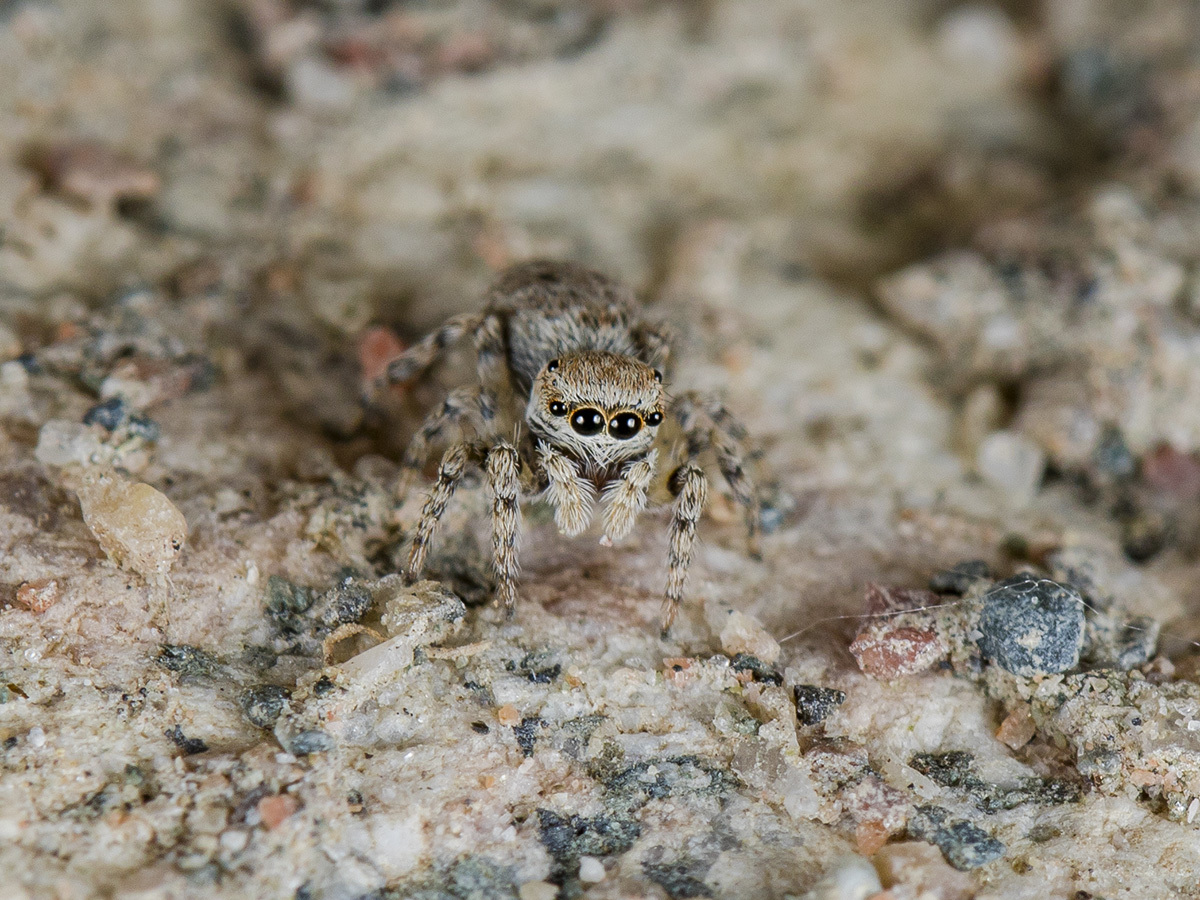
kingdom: Animalia
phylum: Arthropoda
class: Arachnida
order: Araneae
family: Salticidae
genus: Attulus
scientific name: Attulus avocator
